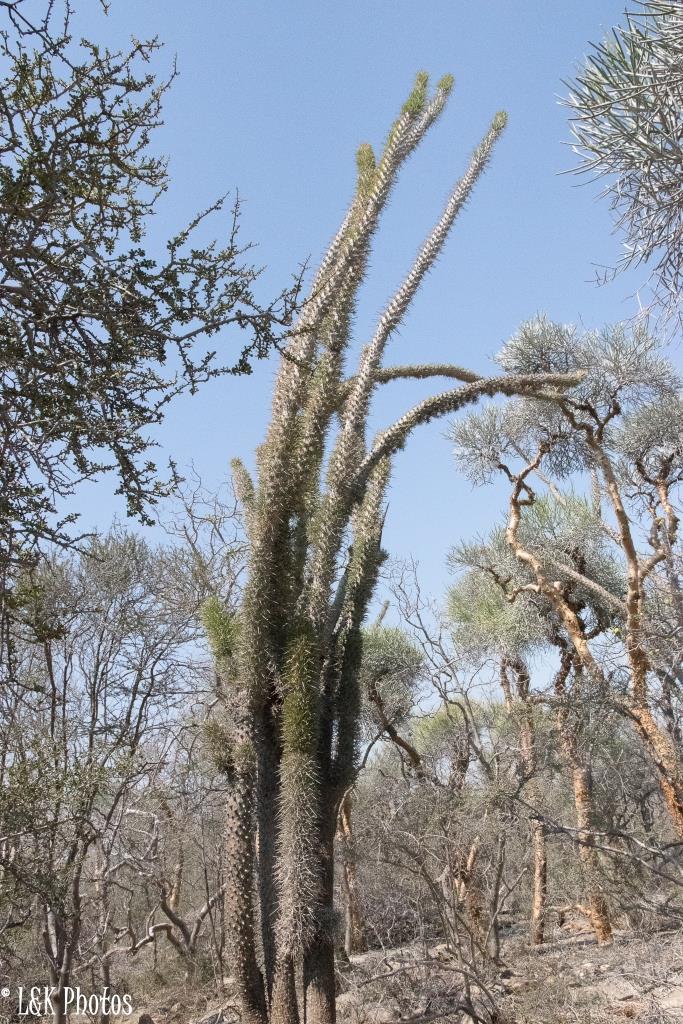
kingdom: Plantae
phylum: Tracheophyta
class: Magnoliopsida
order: Caryophyllales
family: Didiereaceae
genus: Didierea
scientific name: Didierea madagascariensis
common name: Octopus-tree
